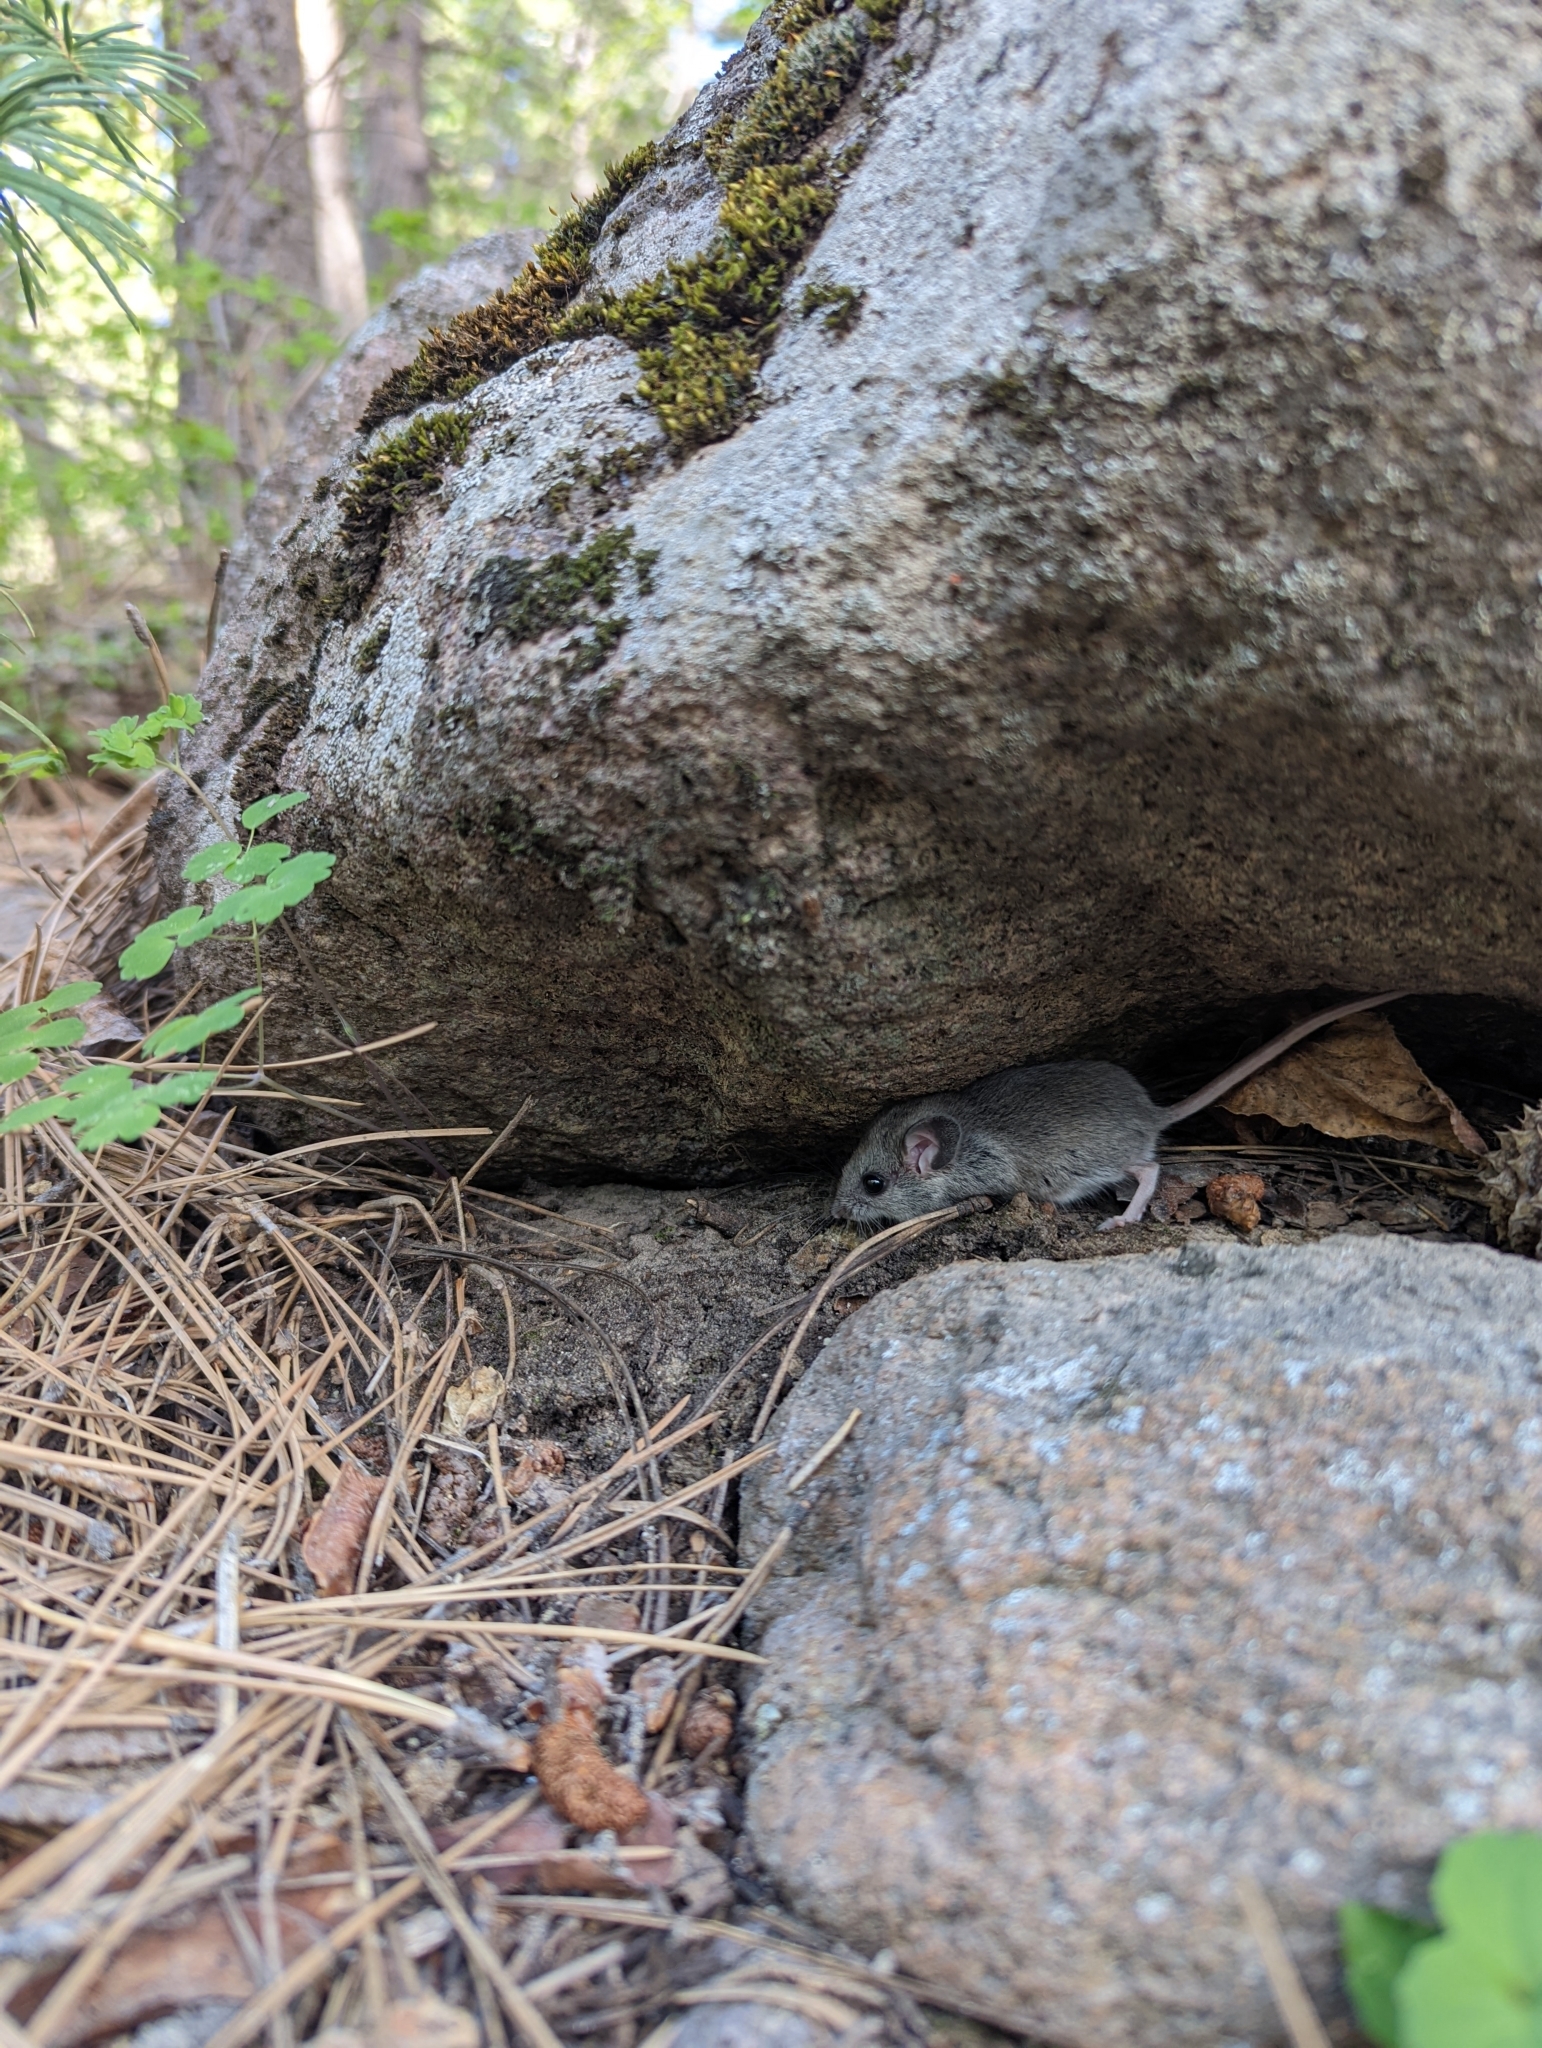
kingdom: Animalia
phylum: Chordata
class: Mammalia
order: Rodentia
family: Cricetidae
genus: Peromyscus
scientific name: Peromyscus maniculatus
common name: Deer mouse
